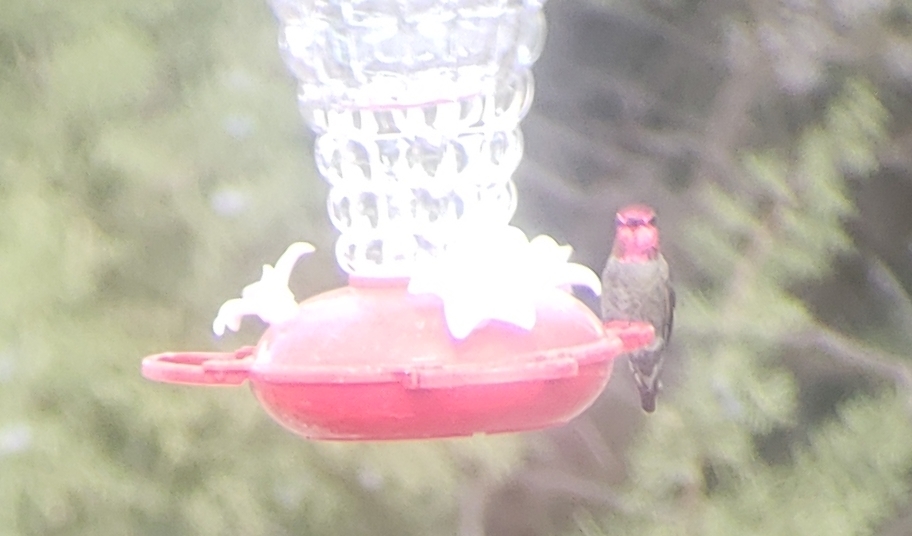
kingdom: Animalia
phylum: Chordata
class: Aves
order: Apodiformes
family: Trochilidae
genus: Calypte
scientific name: Calypte anna
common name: Anna's hummingbird
